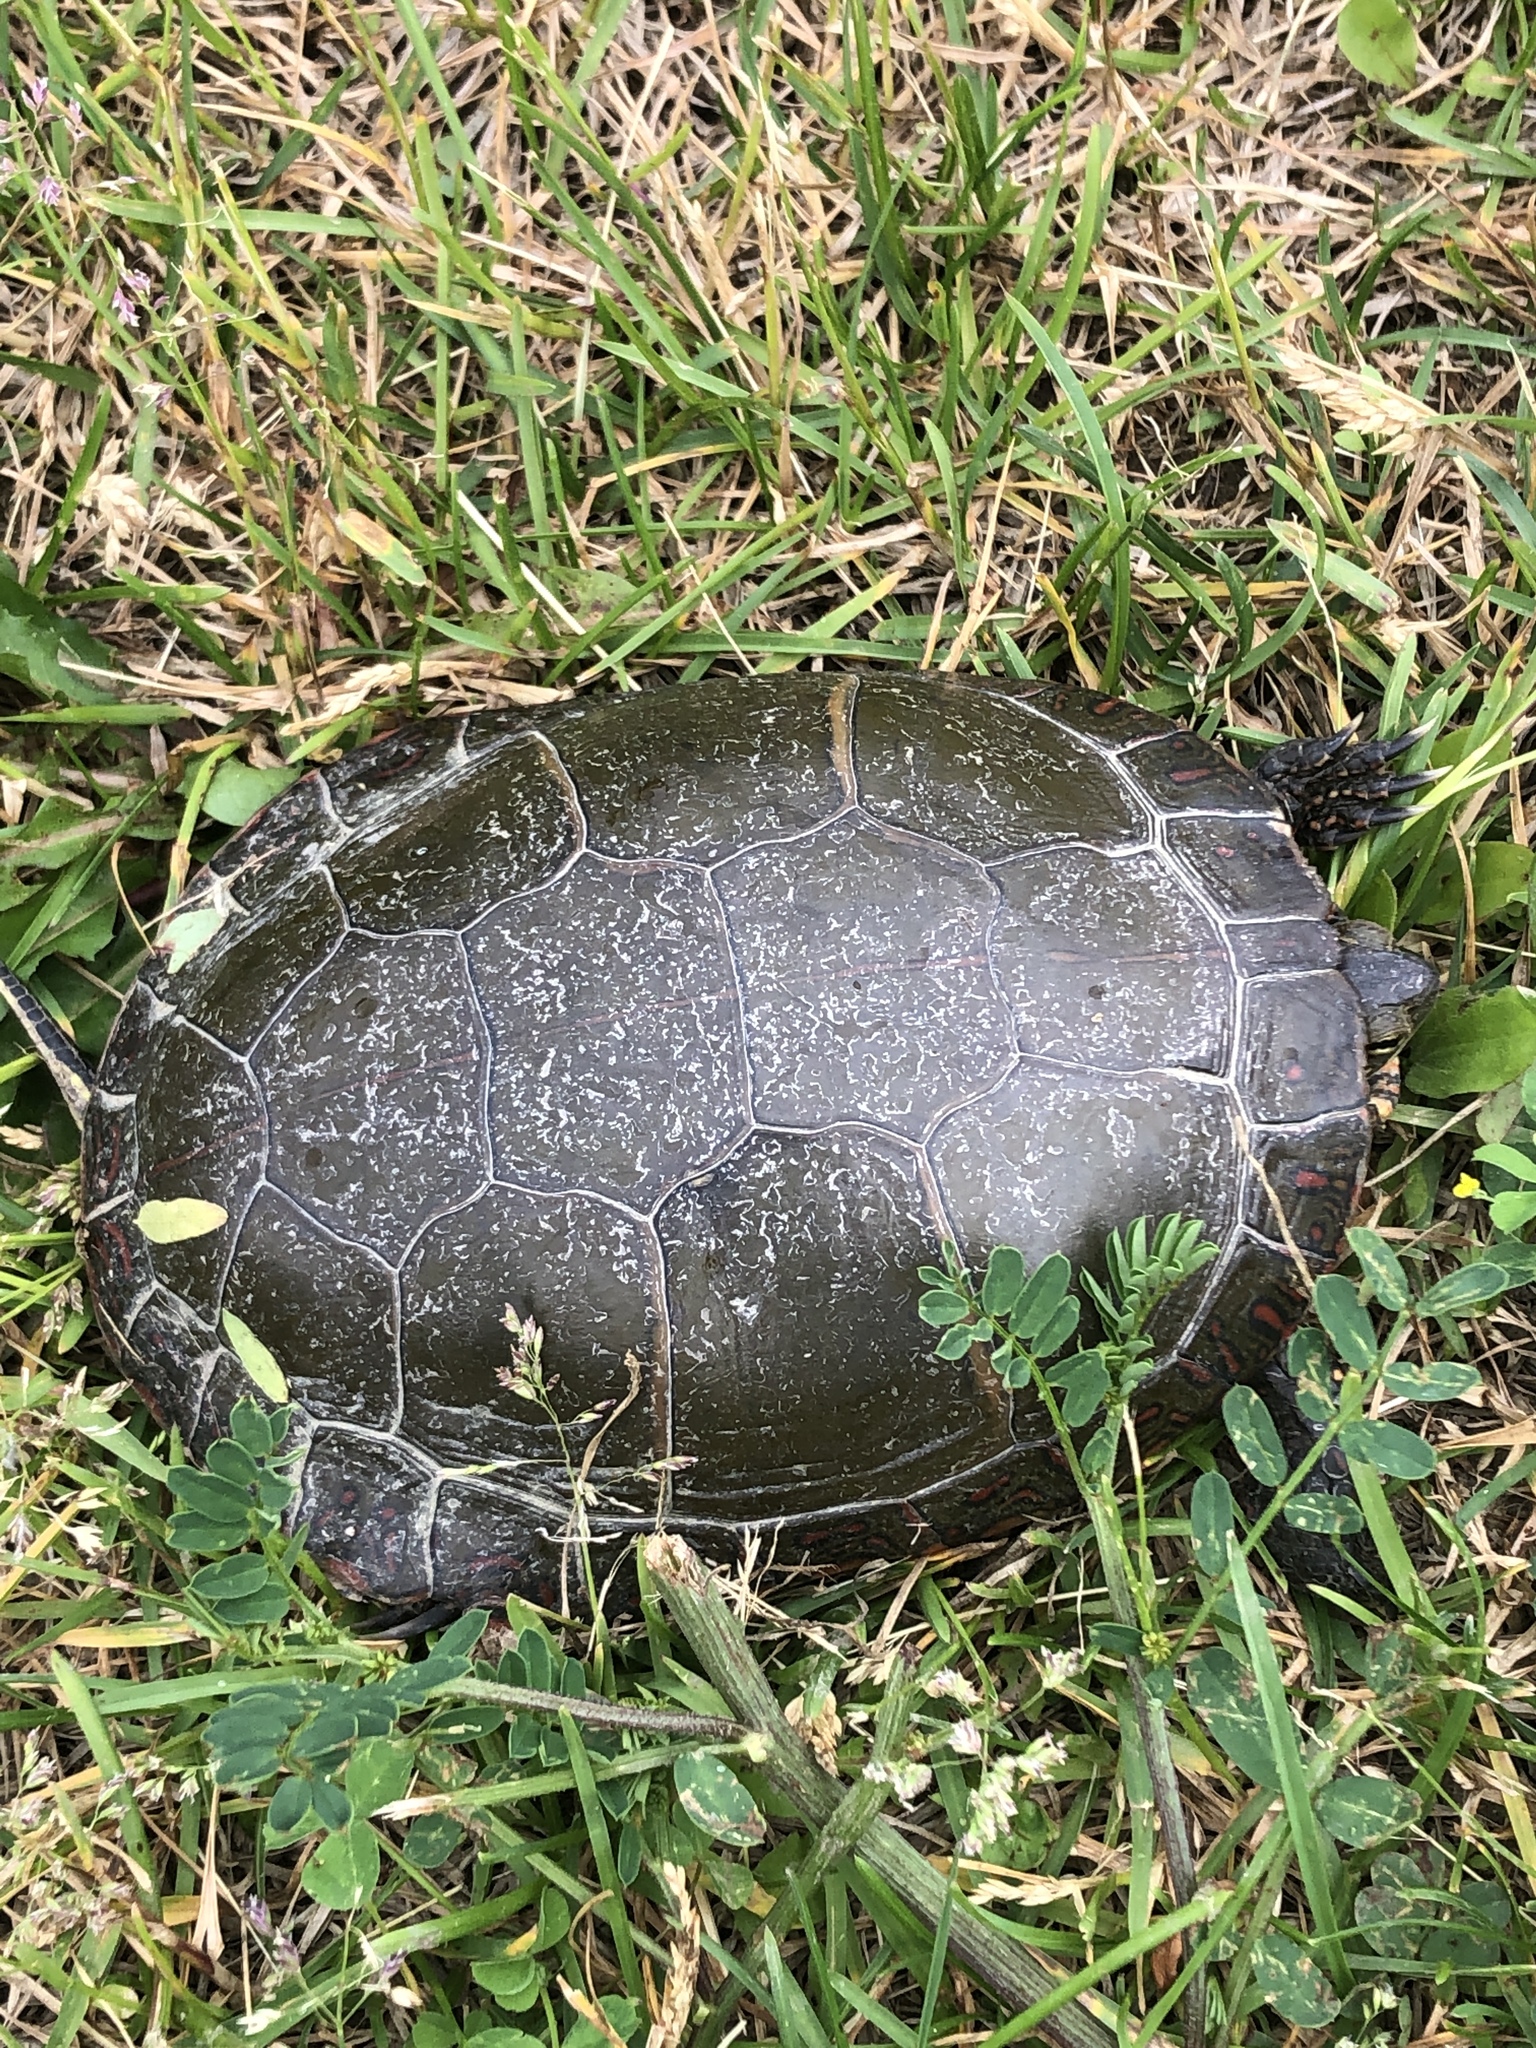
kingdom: Animalia
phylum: Chordata
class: Testudines
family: Emydidae
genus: Chrysemys
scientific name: Chrysemys picta
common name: Painted turtle
